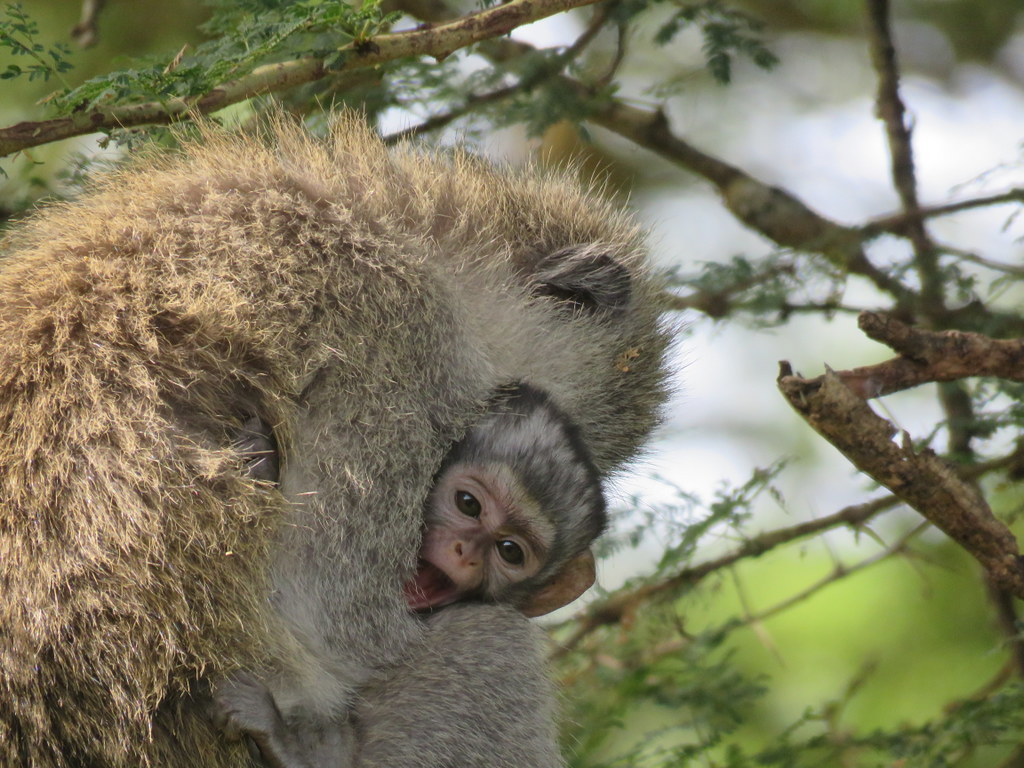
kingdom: Animalia
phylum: Chordata
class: Mammalia
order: Primates
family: Cercopithecidae
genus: Chlorocebus
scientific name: Chlorocebus pygerythrus
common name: Vervet monkey
